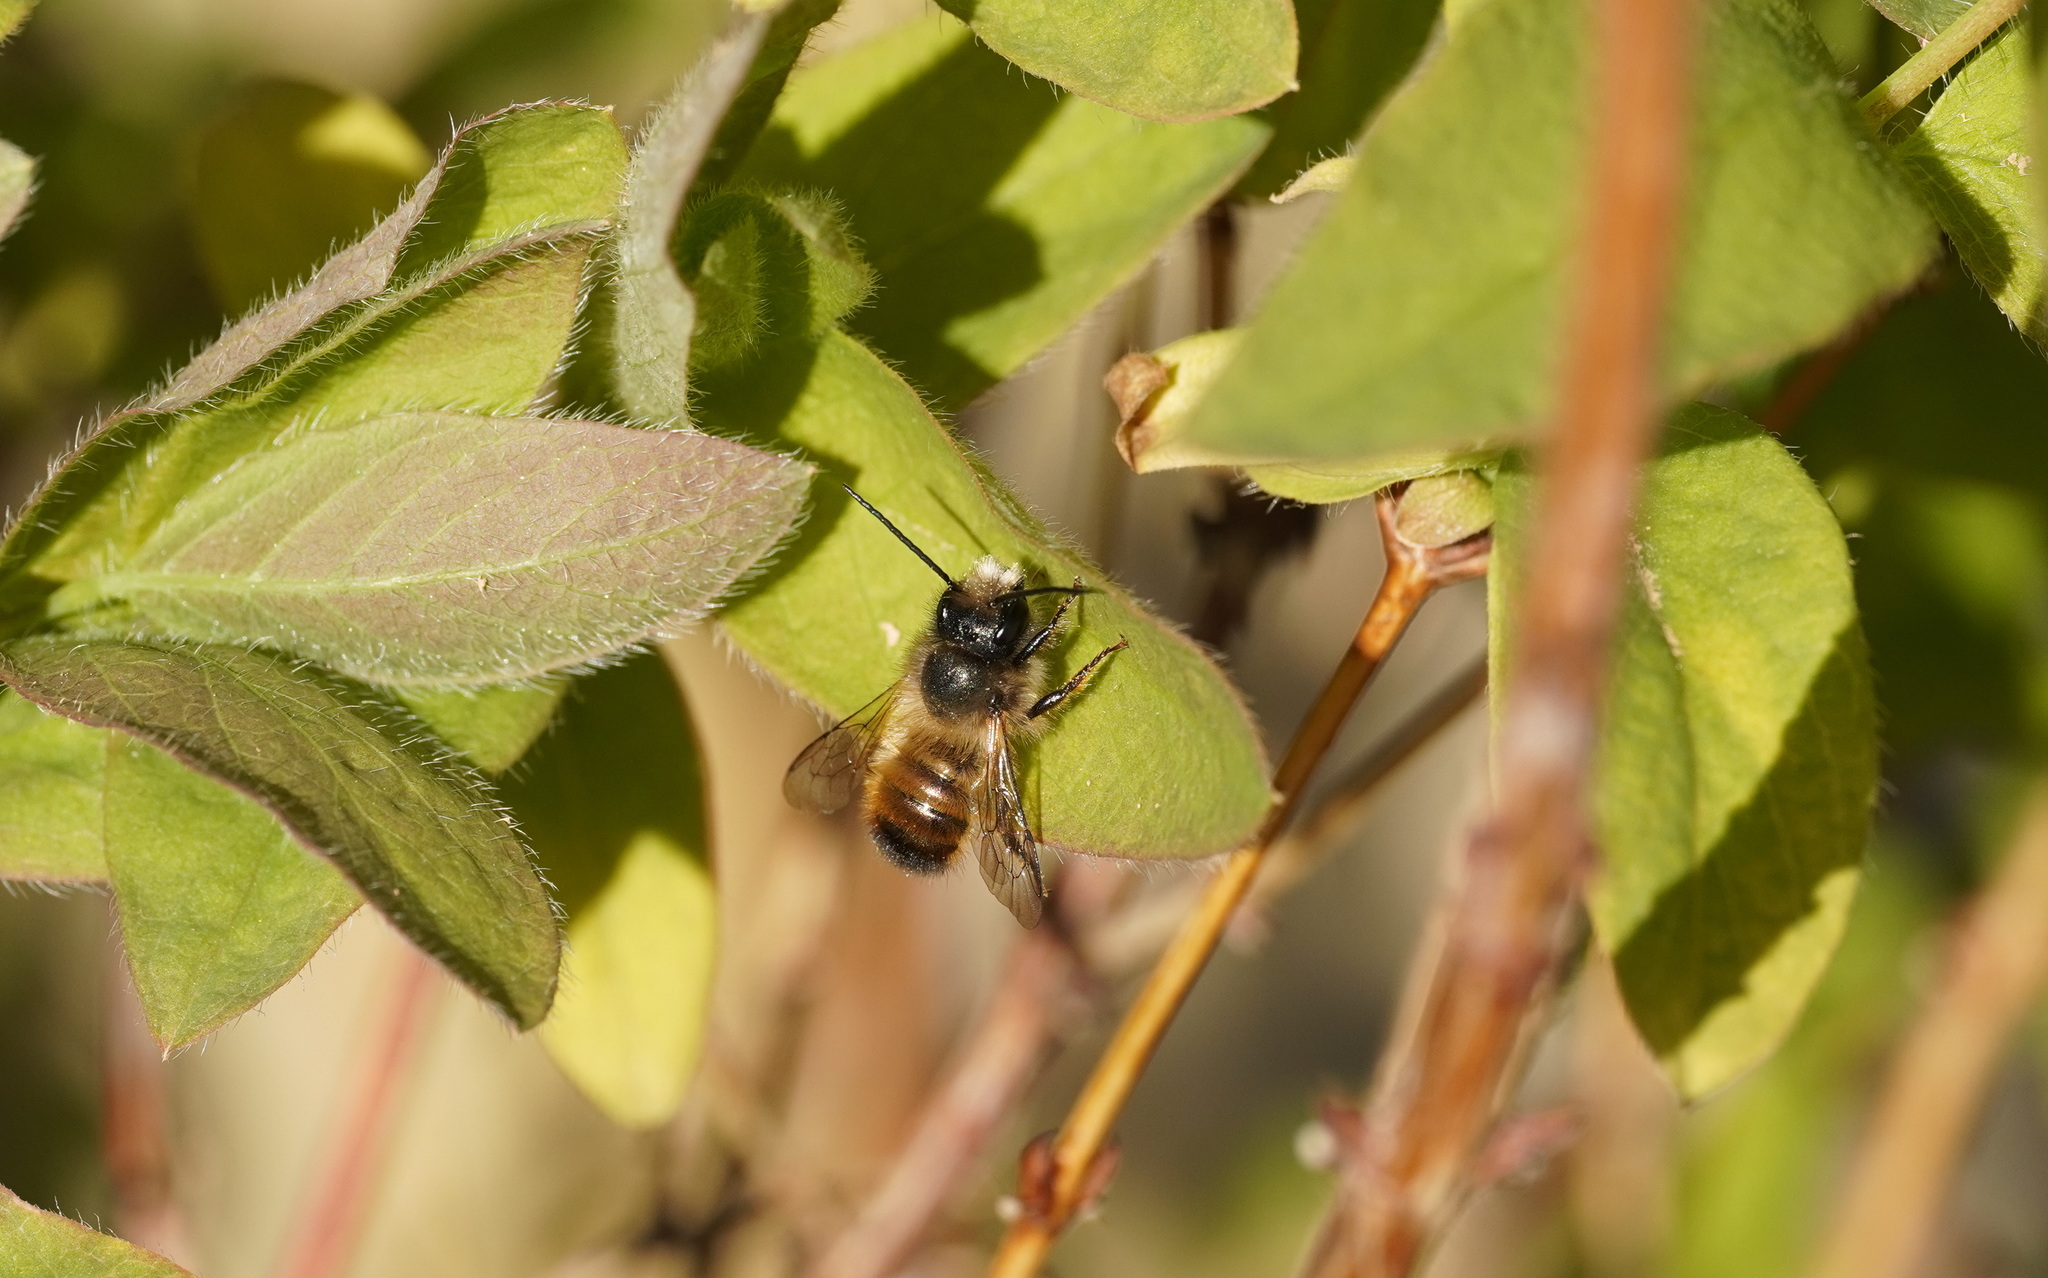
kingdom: Animalia
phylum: Arthropoda
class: Insecta
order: Hymenoptera
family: Megachilidae
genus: Osmia
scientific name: Osmia bicornis
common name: Red mason bee
